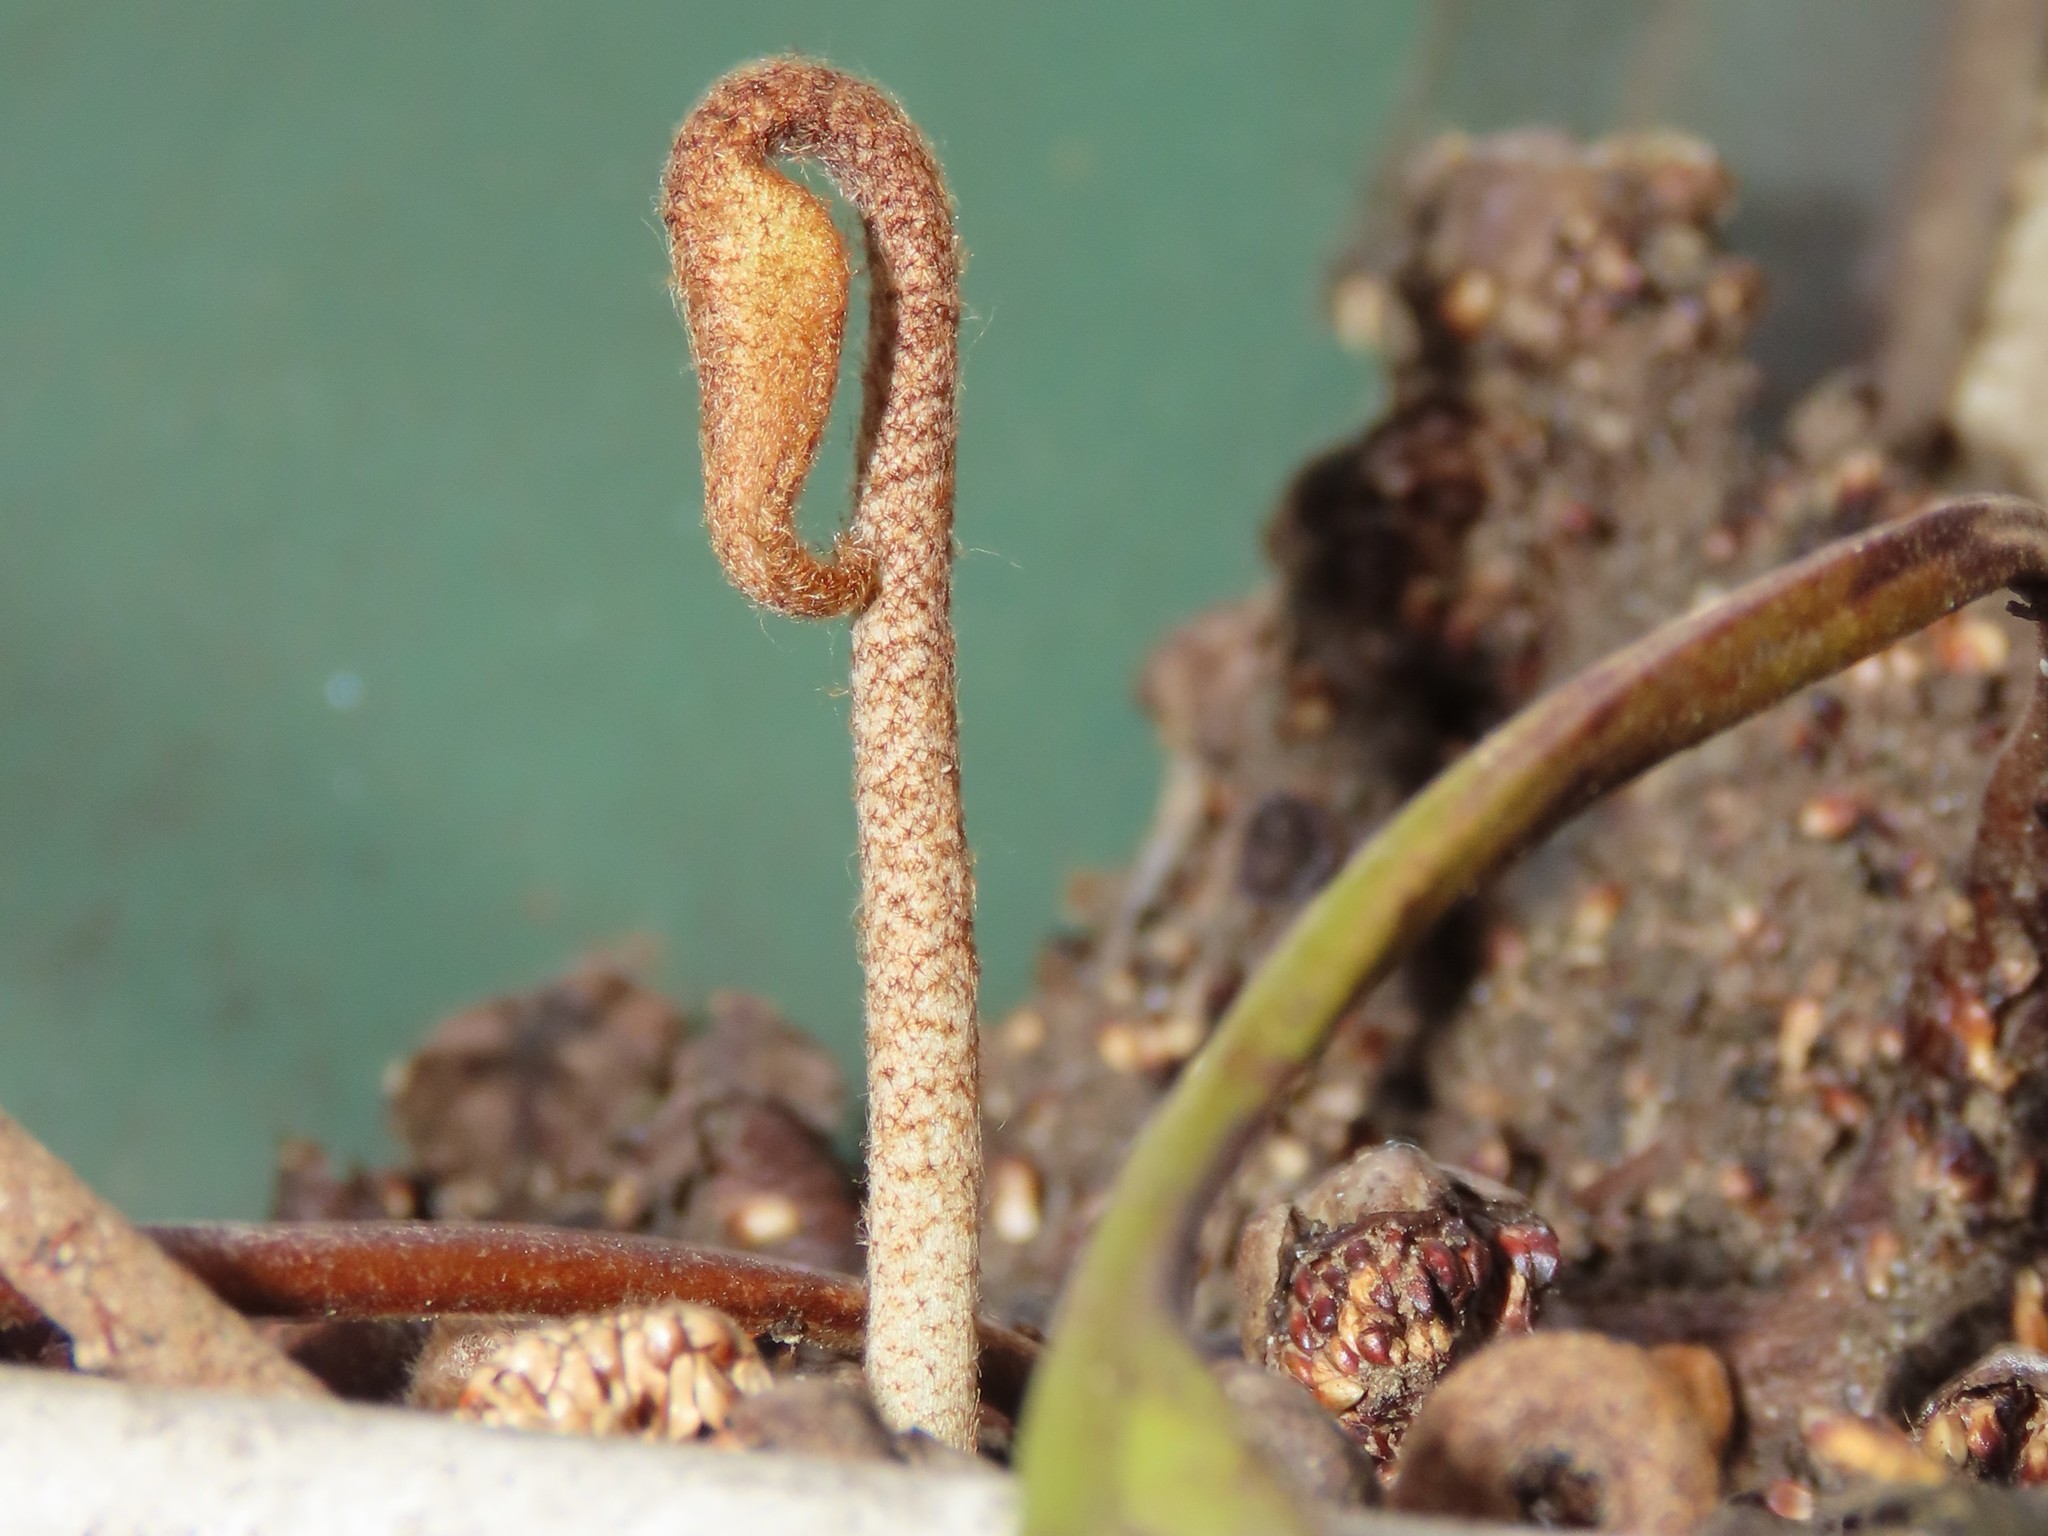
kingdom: Plantae
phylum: Tracheophyta
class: Polypodiopsida
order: Polypodiales
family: Polypodiaceae
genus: Pyrrosia
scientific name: Pyrrosia lingua
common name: Felt fern
